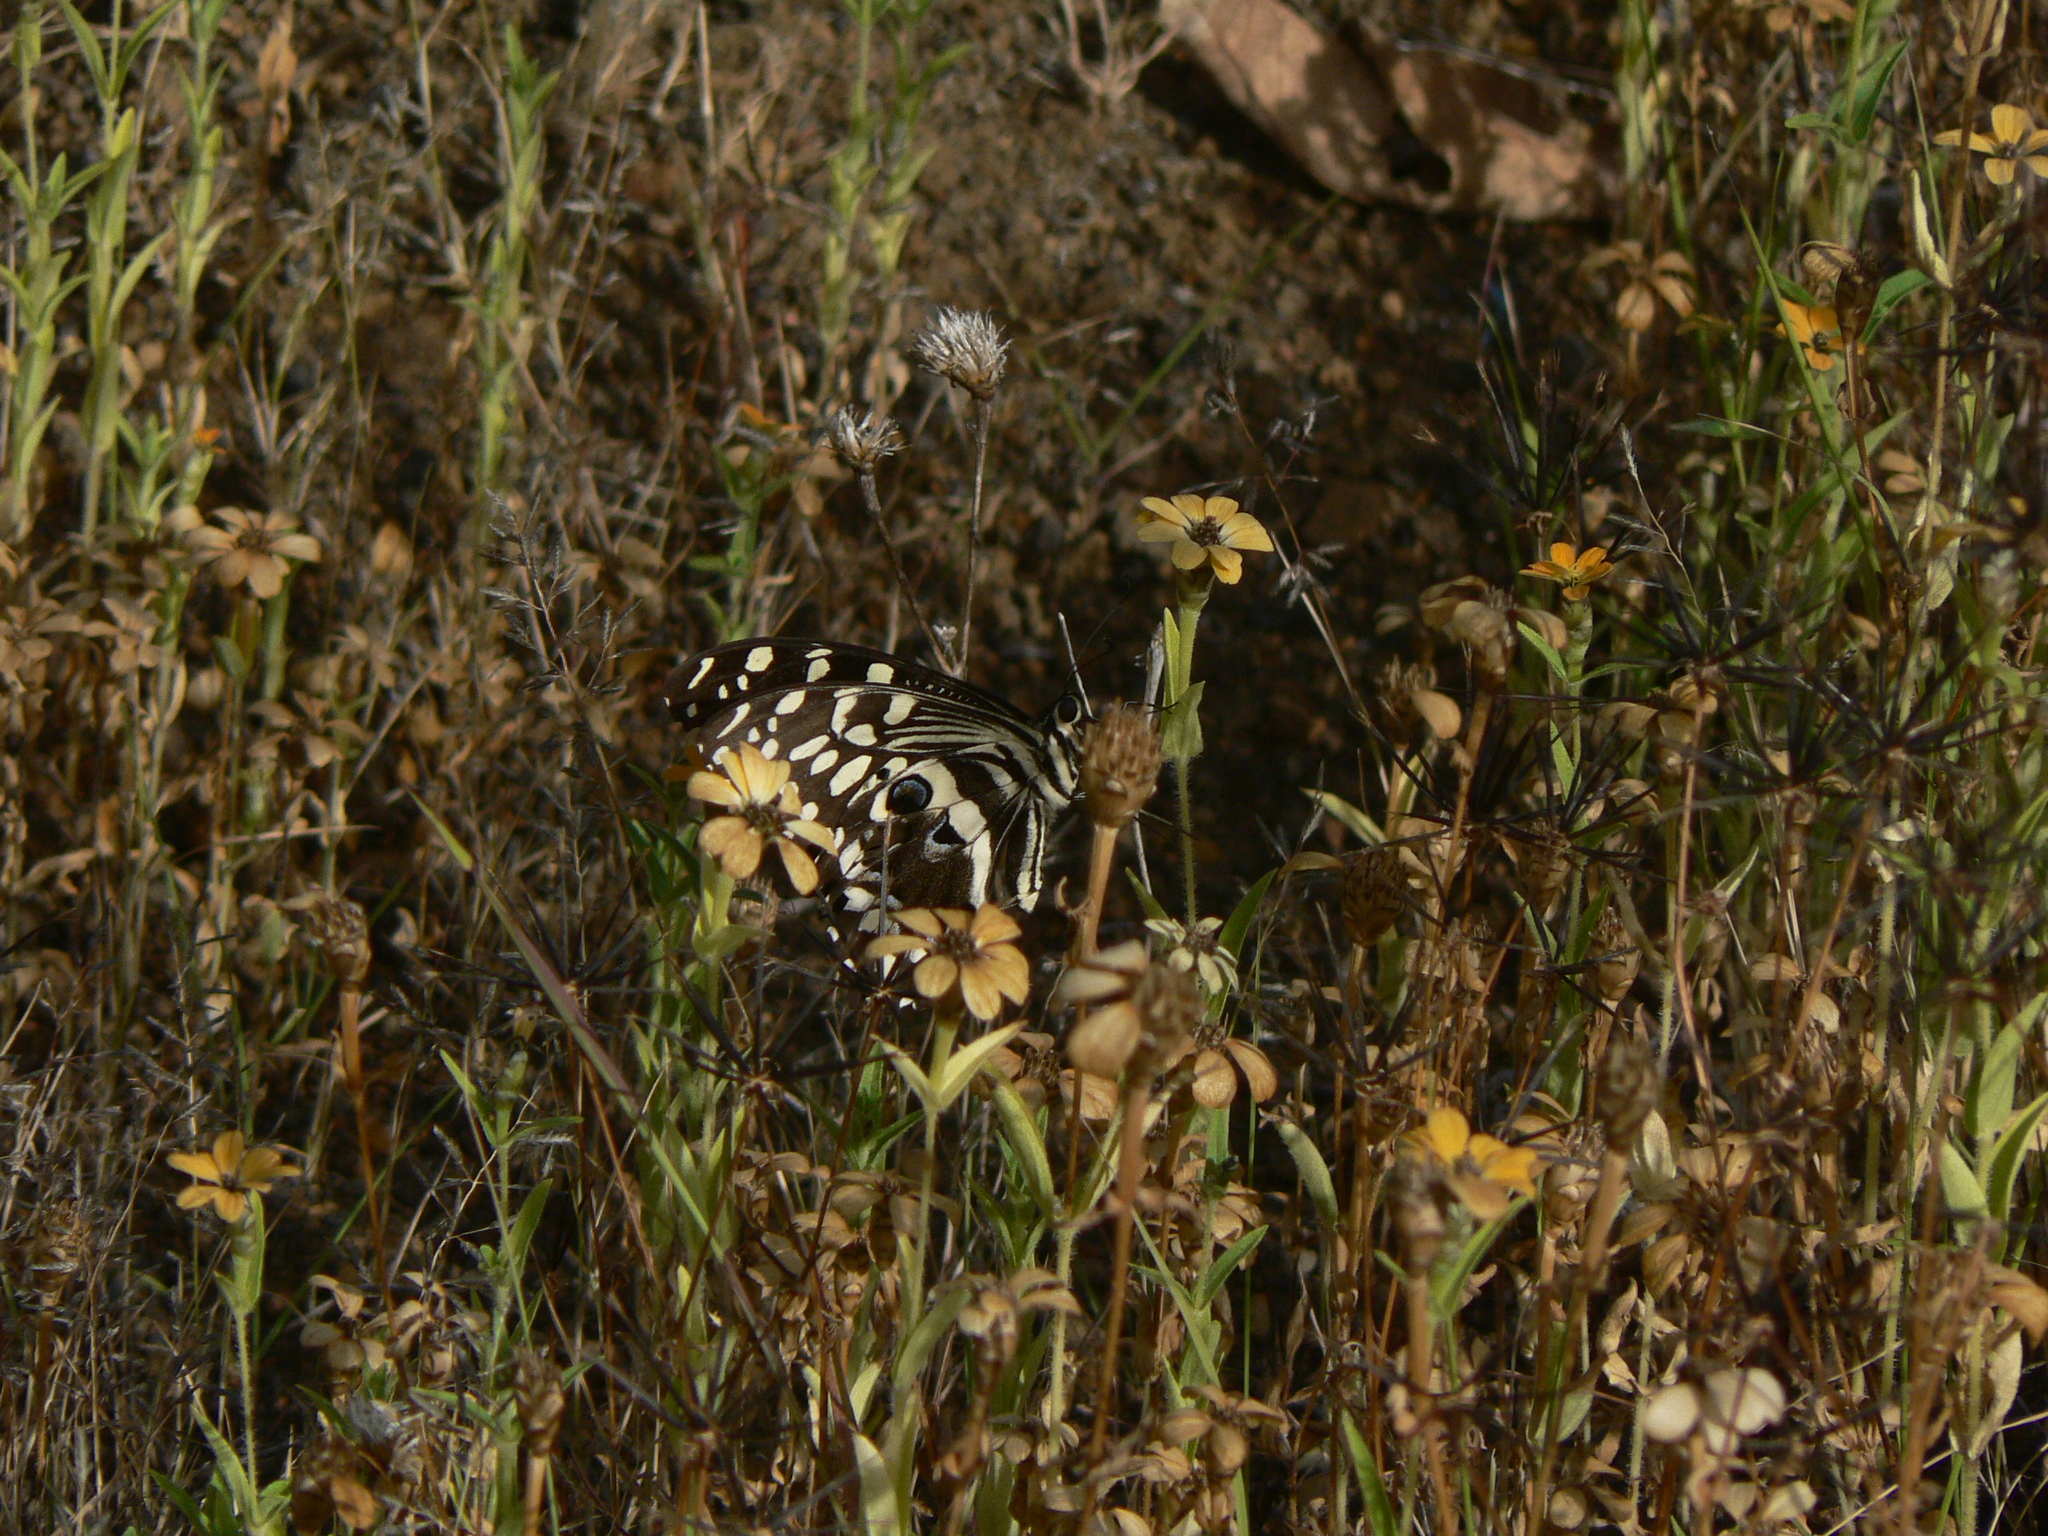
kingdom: Animalia
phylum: Arthropoda
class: Insecta
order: Lepidoptera
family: Papilionidae
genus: Papilio
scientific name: Papilio demodocus
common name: Christmas butterfly
